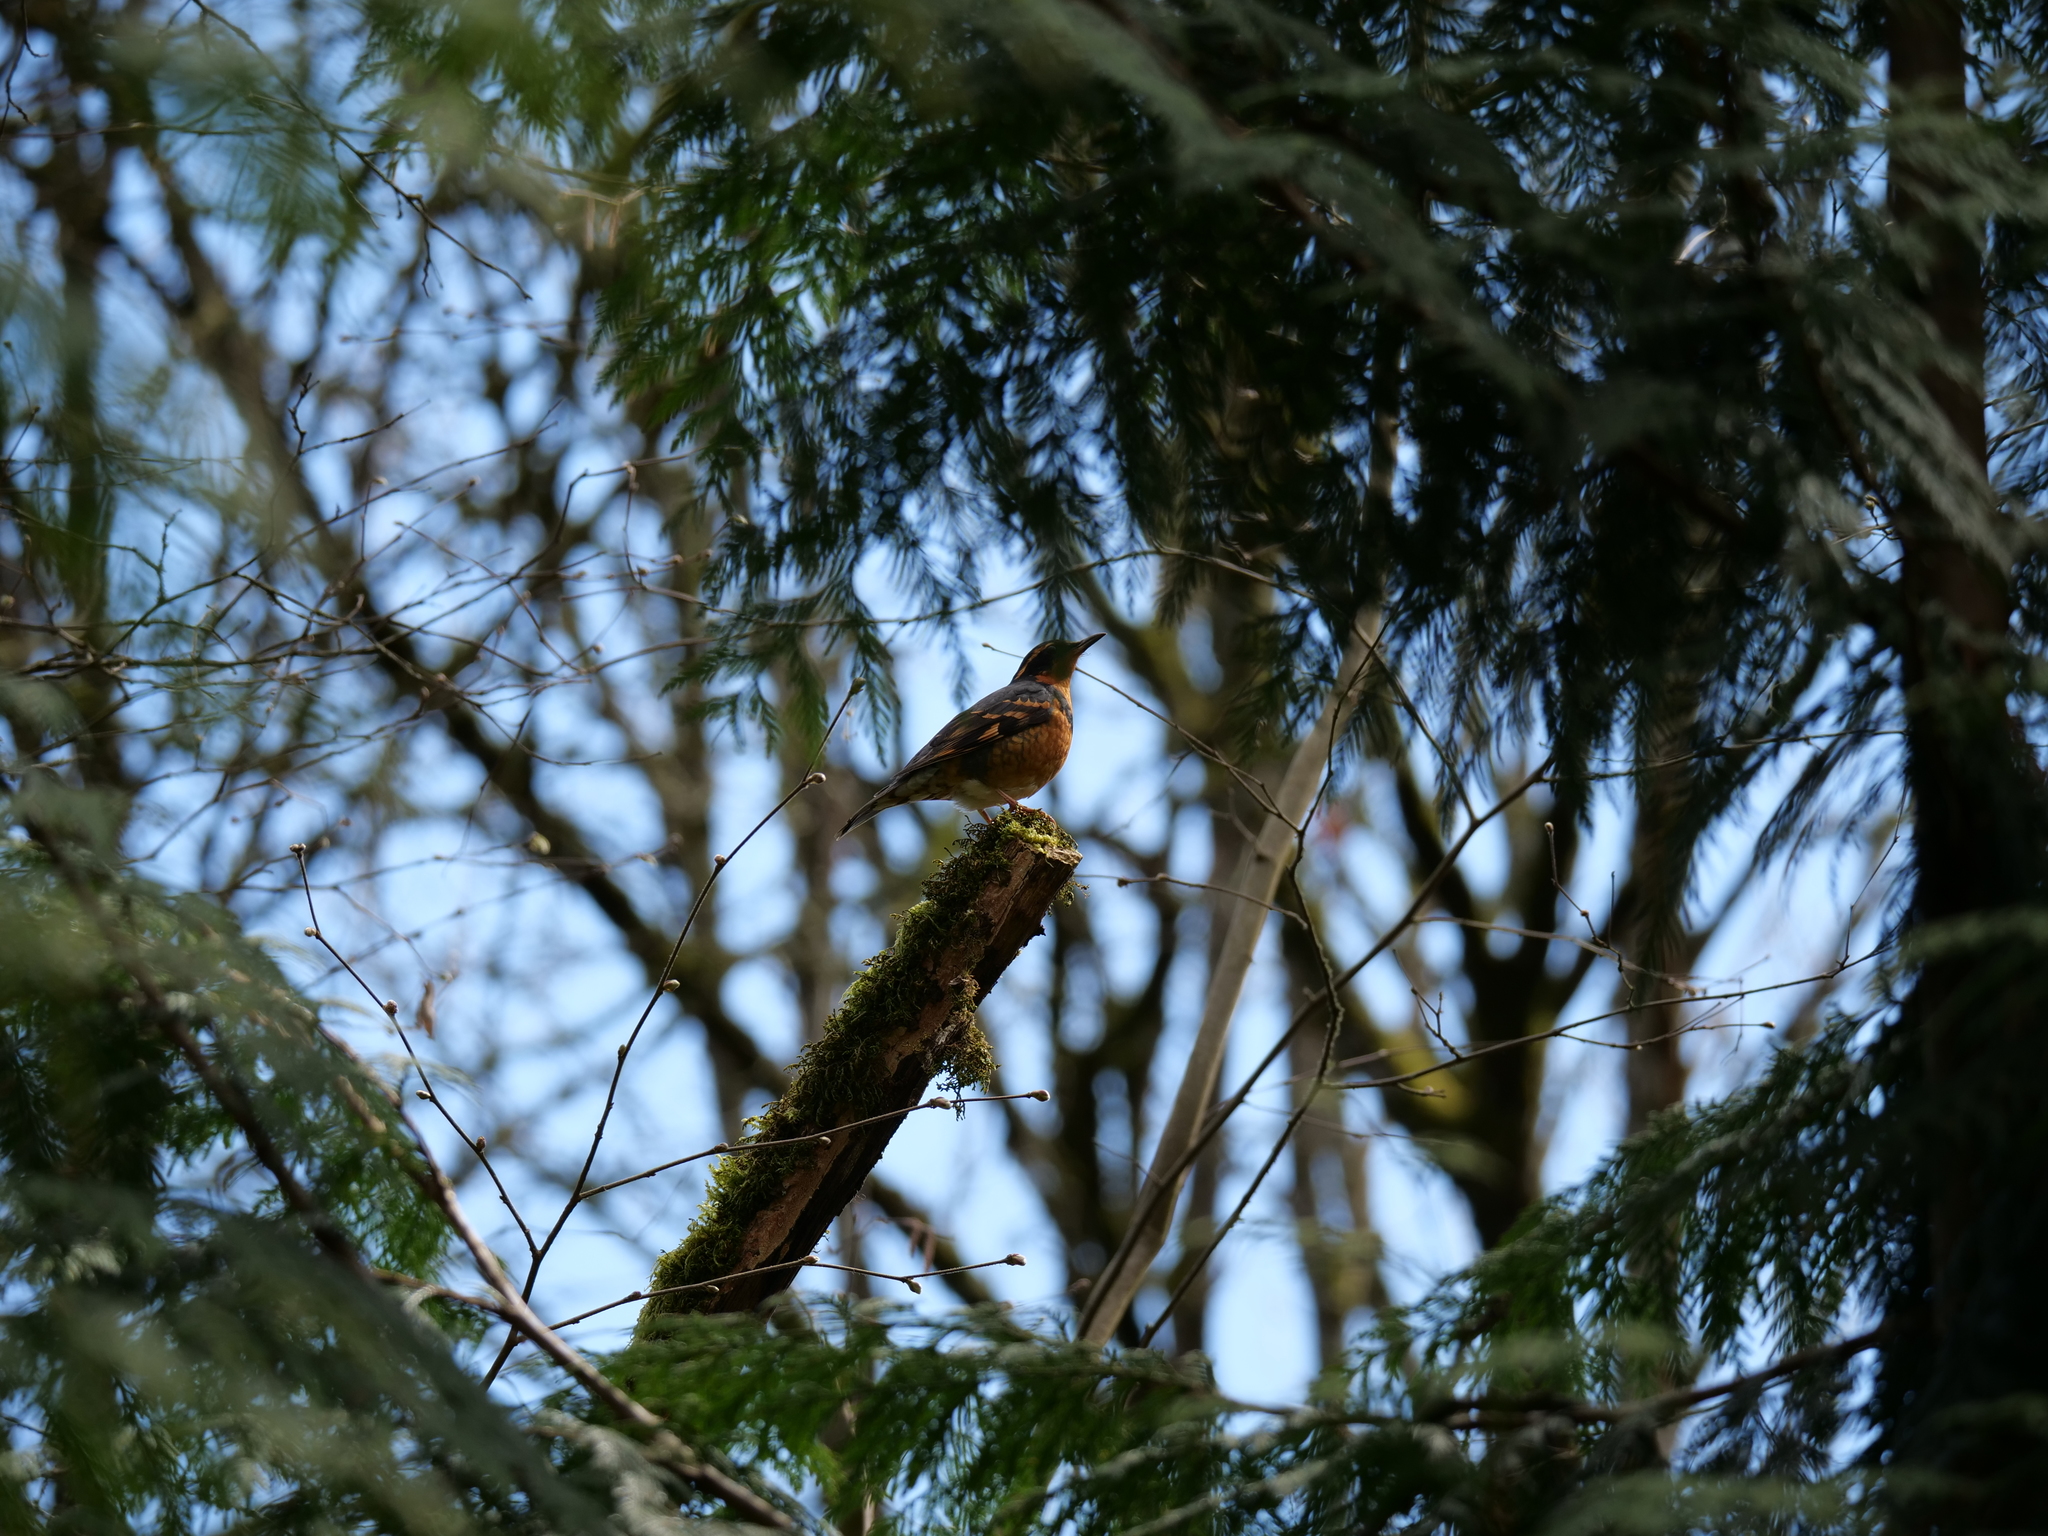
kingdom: Animalia
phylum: Chordata
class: Aves
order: Passeriformes
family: Turdidae
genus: Ixoreus
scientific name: Ixoreus naevius
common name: Varied thrush
